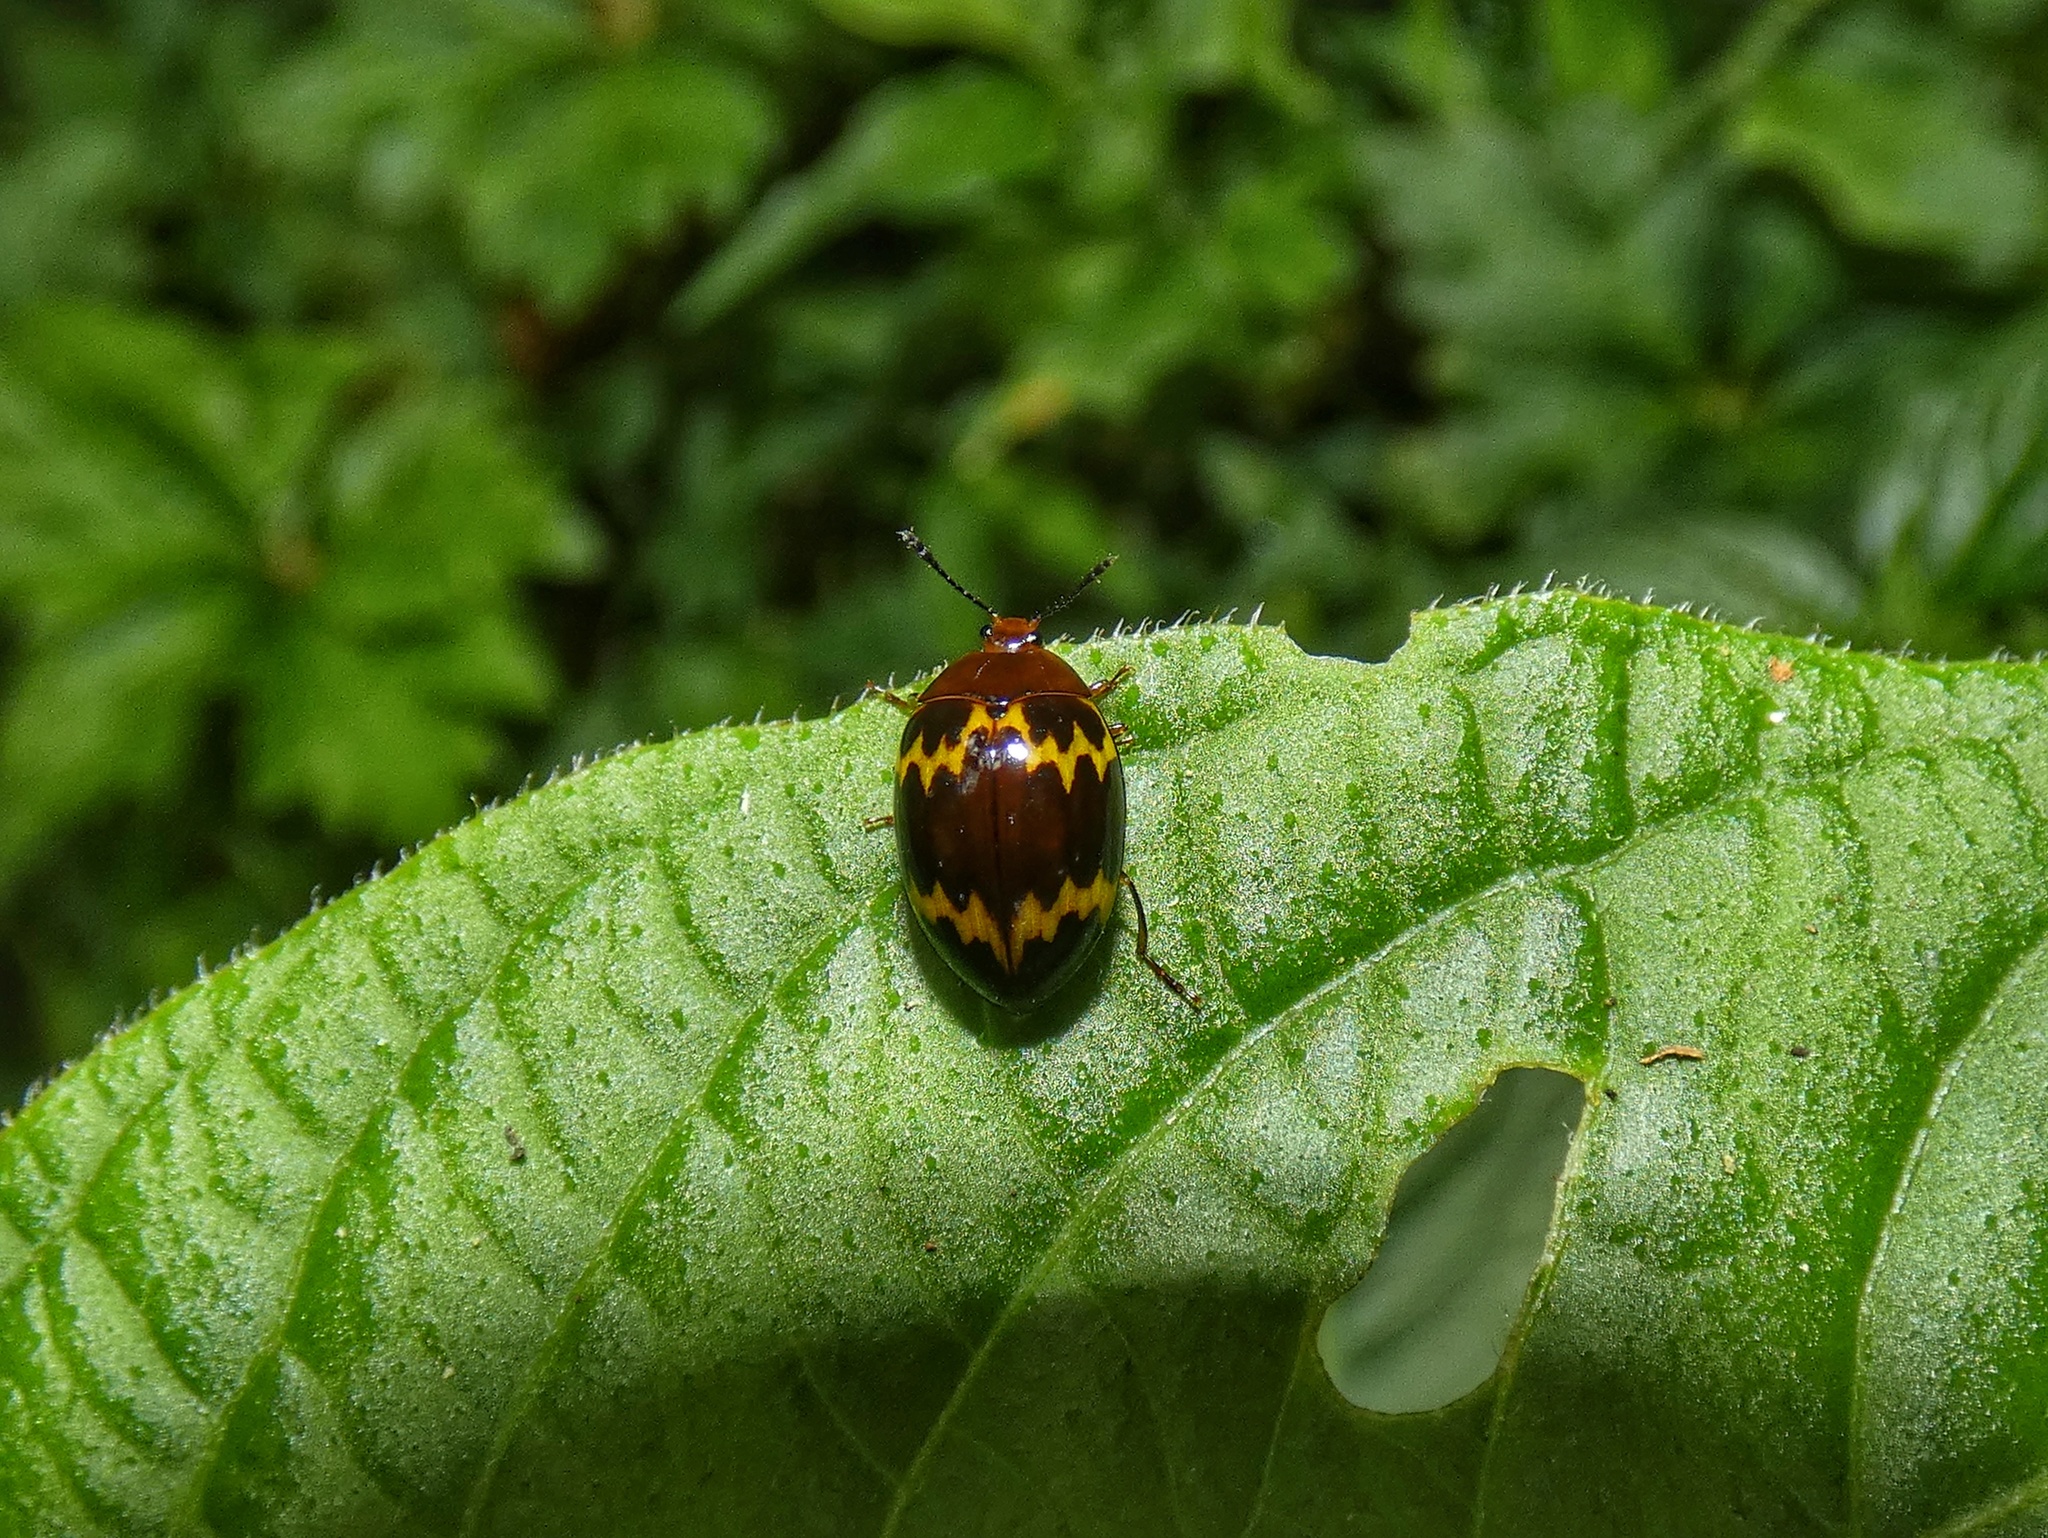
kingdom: Animalia
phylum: Arthropoda
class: Insecta
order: Coleoptera
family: Erotylidae
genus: Iphiclus
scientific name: Iphiclus
